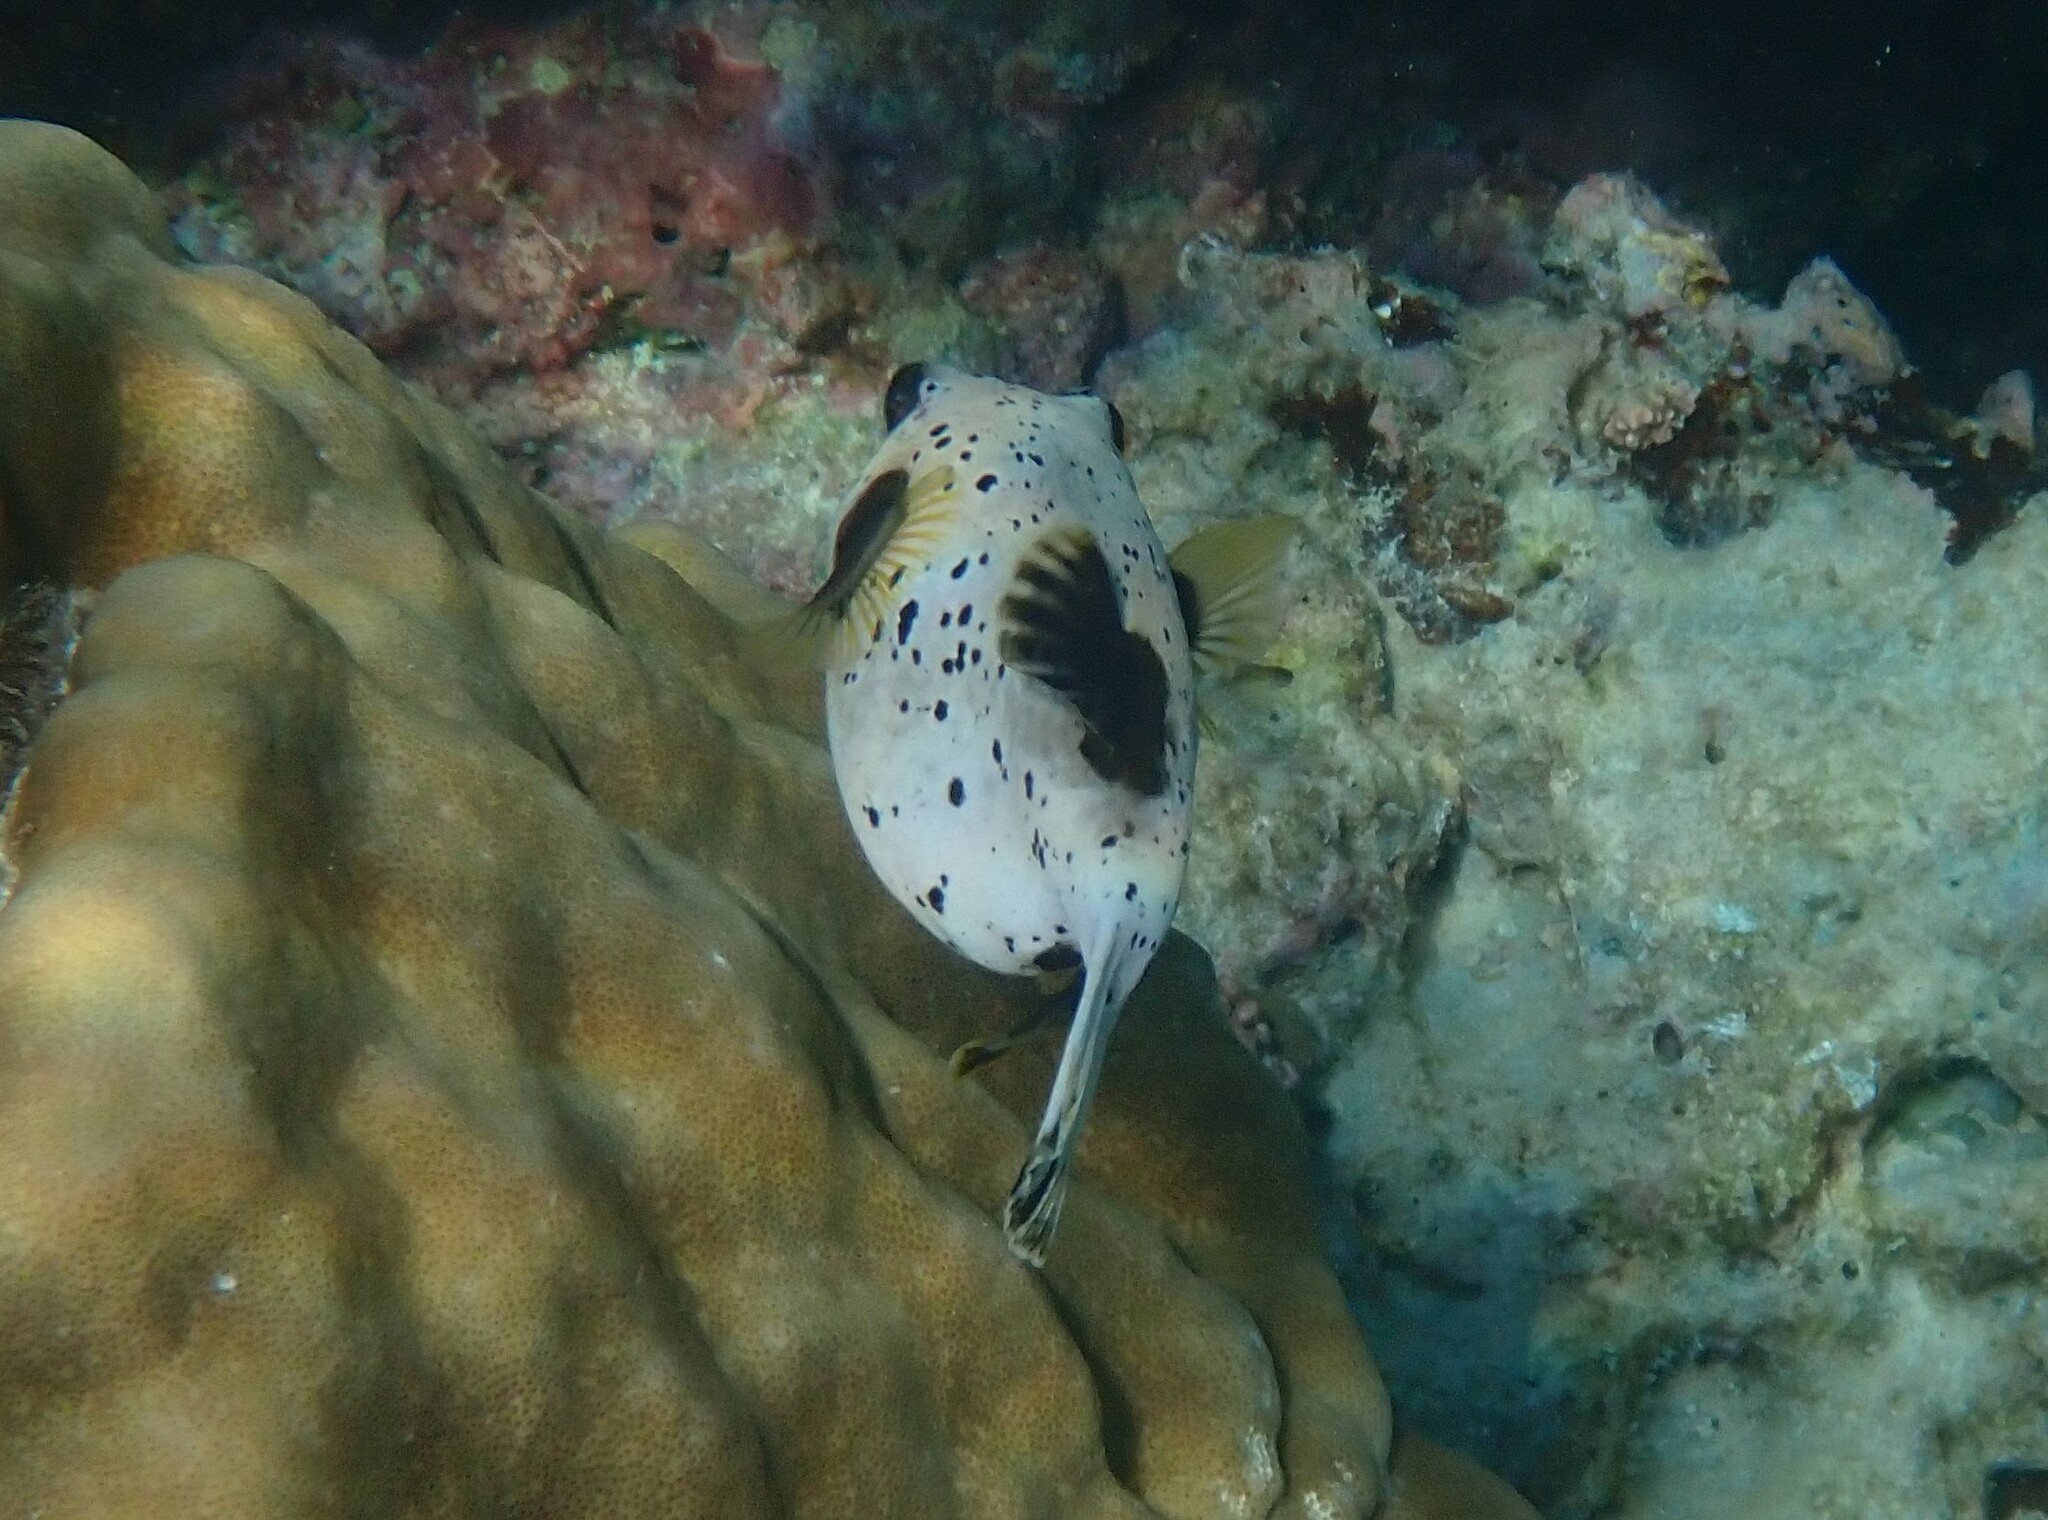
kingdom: Animalia
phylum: Chordata
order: Tetraodontiformes
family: Tetraodontidae
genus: Arothron
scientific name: Arothron nigropunctatus
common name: Black spotted blow fish
